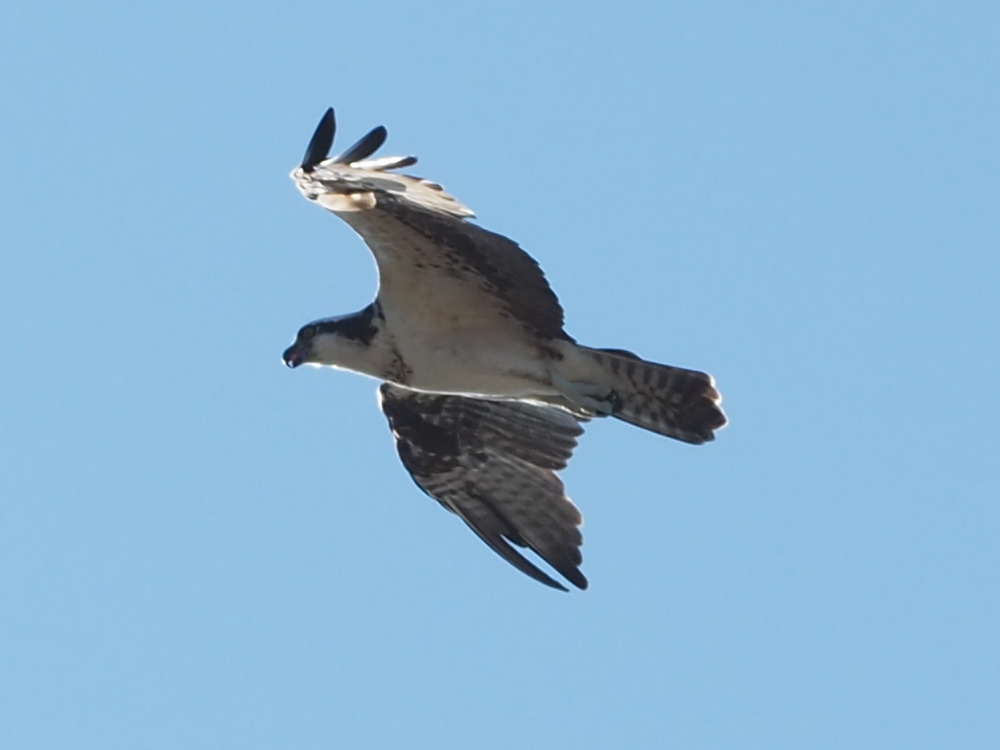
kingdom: Animalia
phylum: Chordata
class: Aves
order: Accipitriformes
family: Pandionidae
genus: Pandion
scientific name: Pandion haliaetus
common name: Osprey
